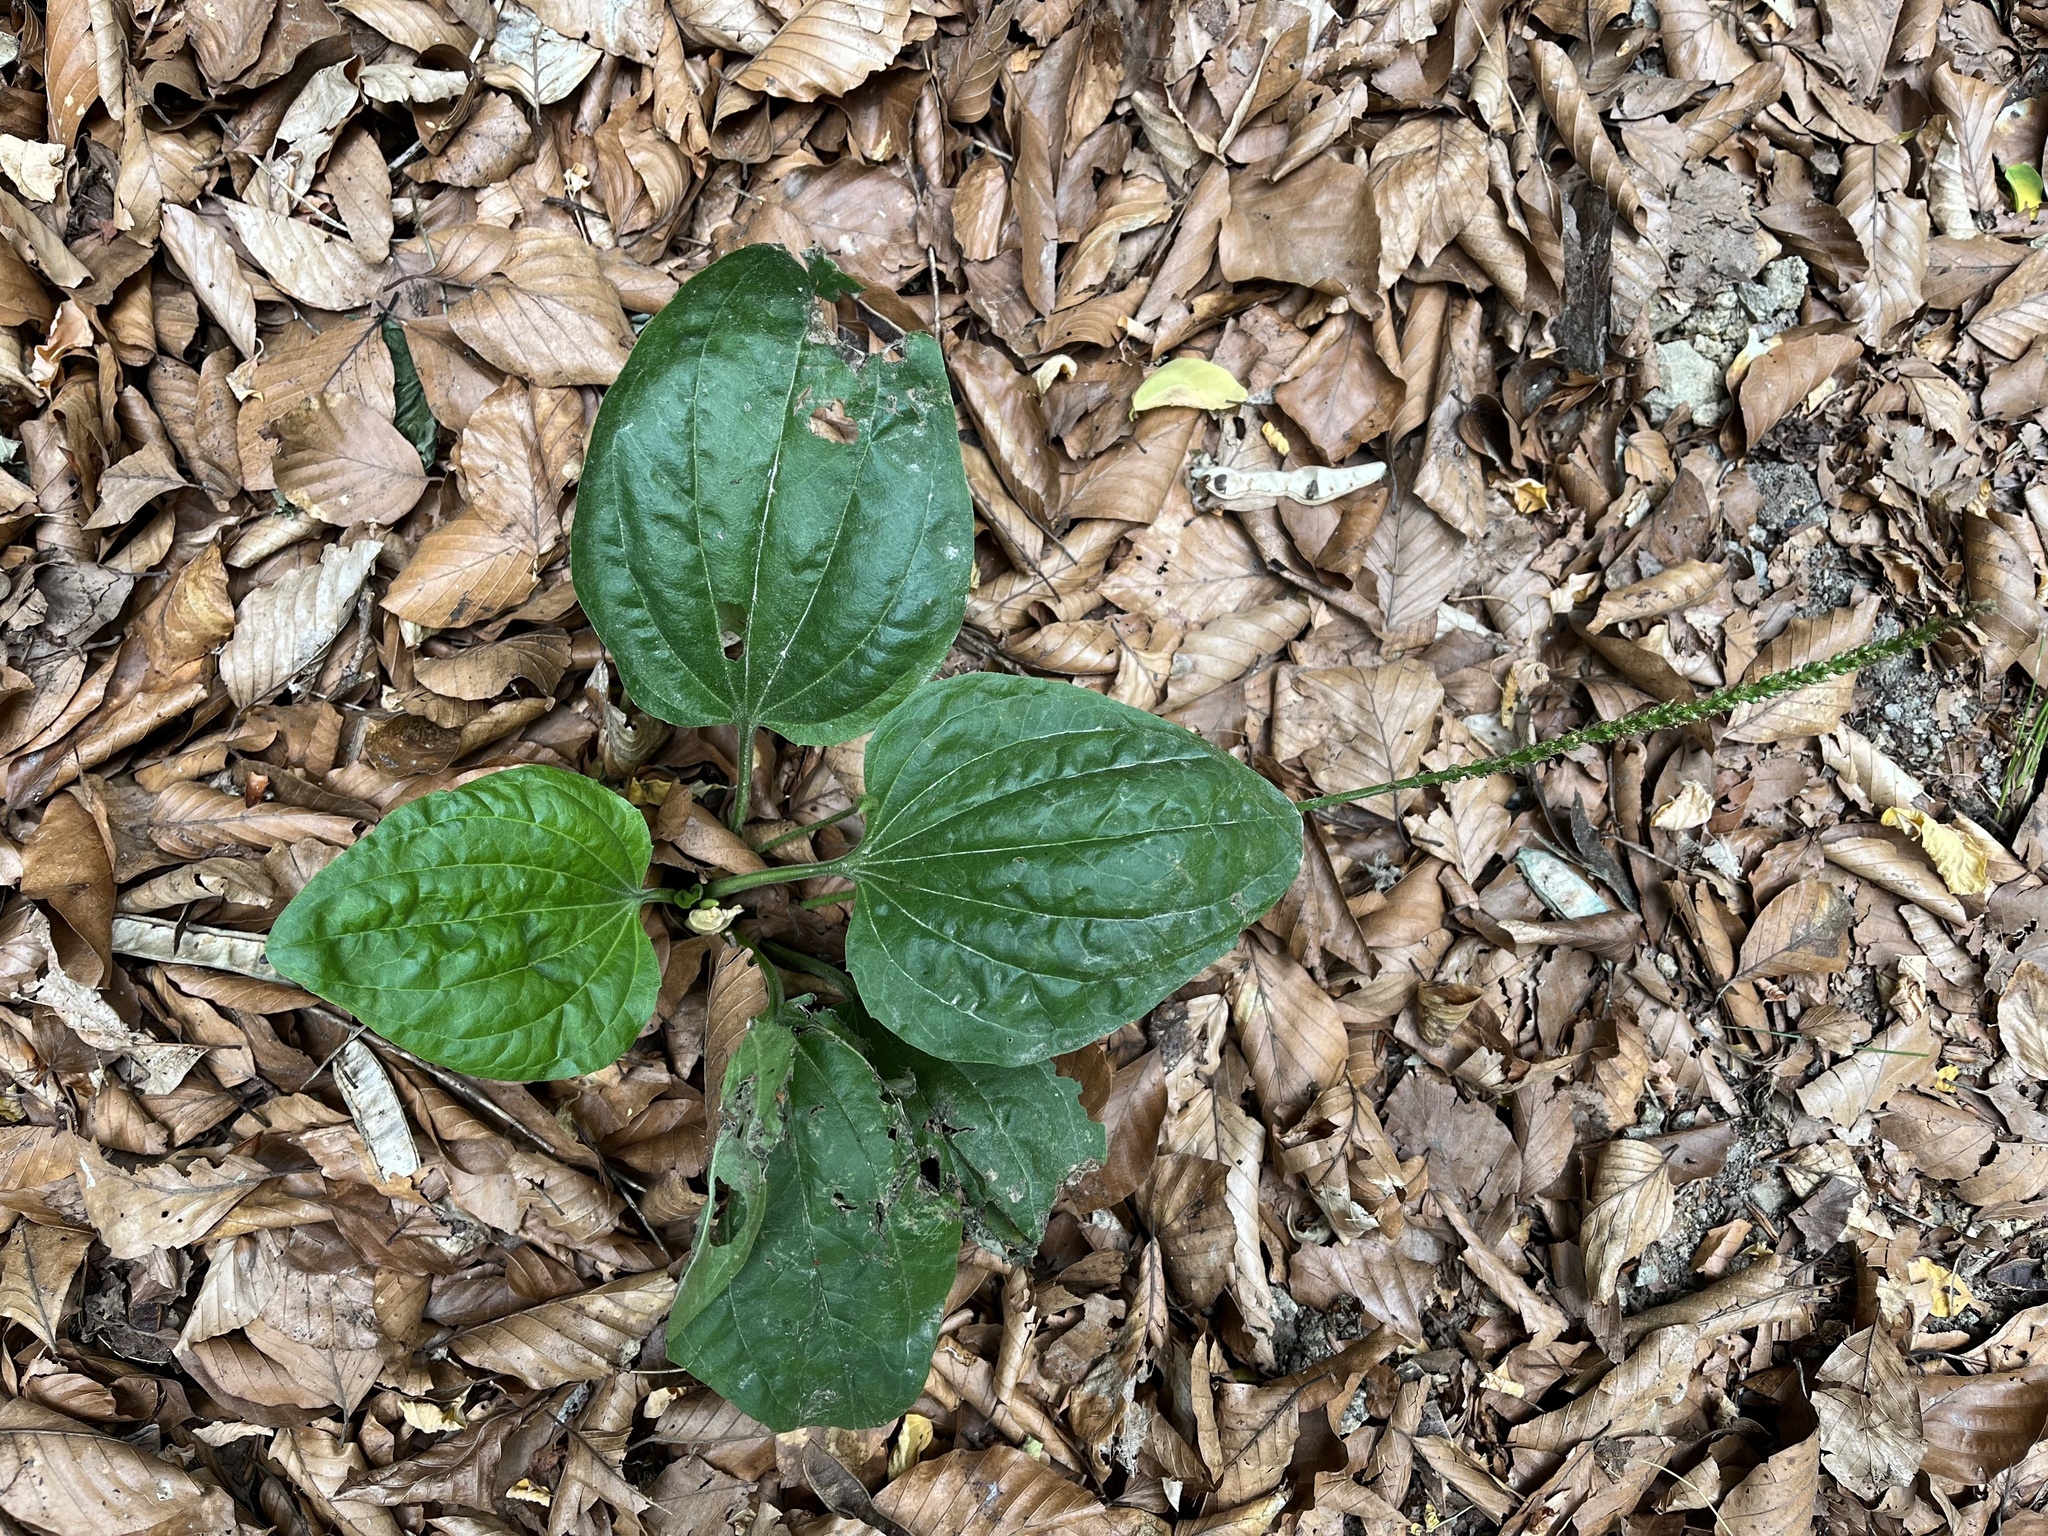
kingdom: Plantae
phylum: Tracheophyta
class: Magnoliopsida
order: Lamiales
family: Plantaginaceae
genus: Plantago
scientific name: Plantago major
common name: Common plantain
